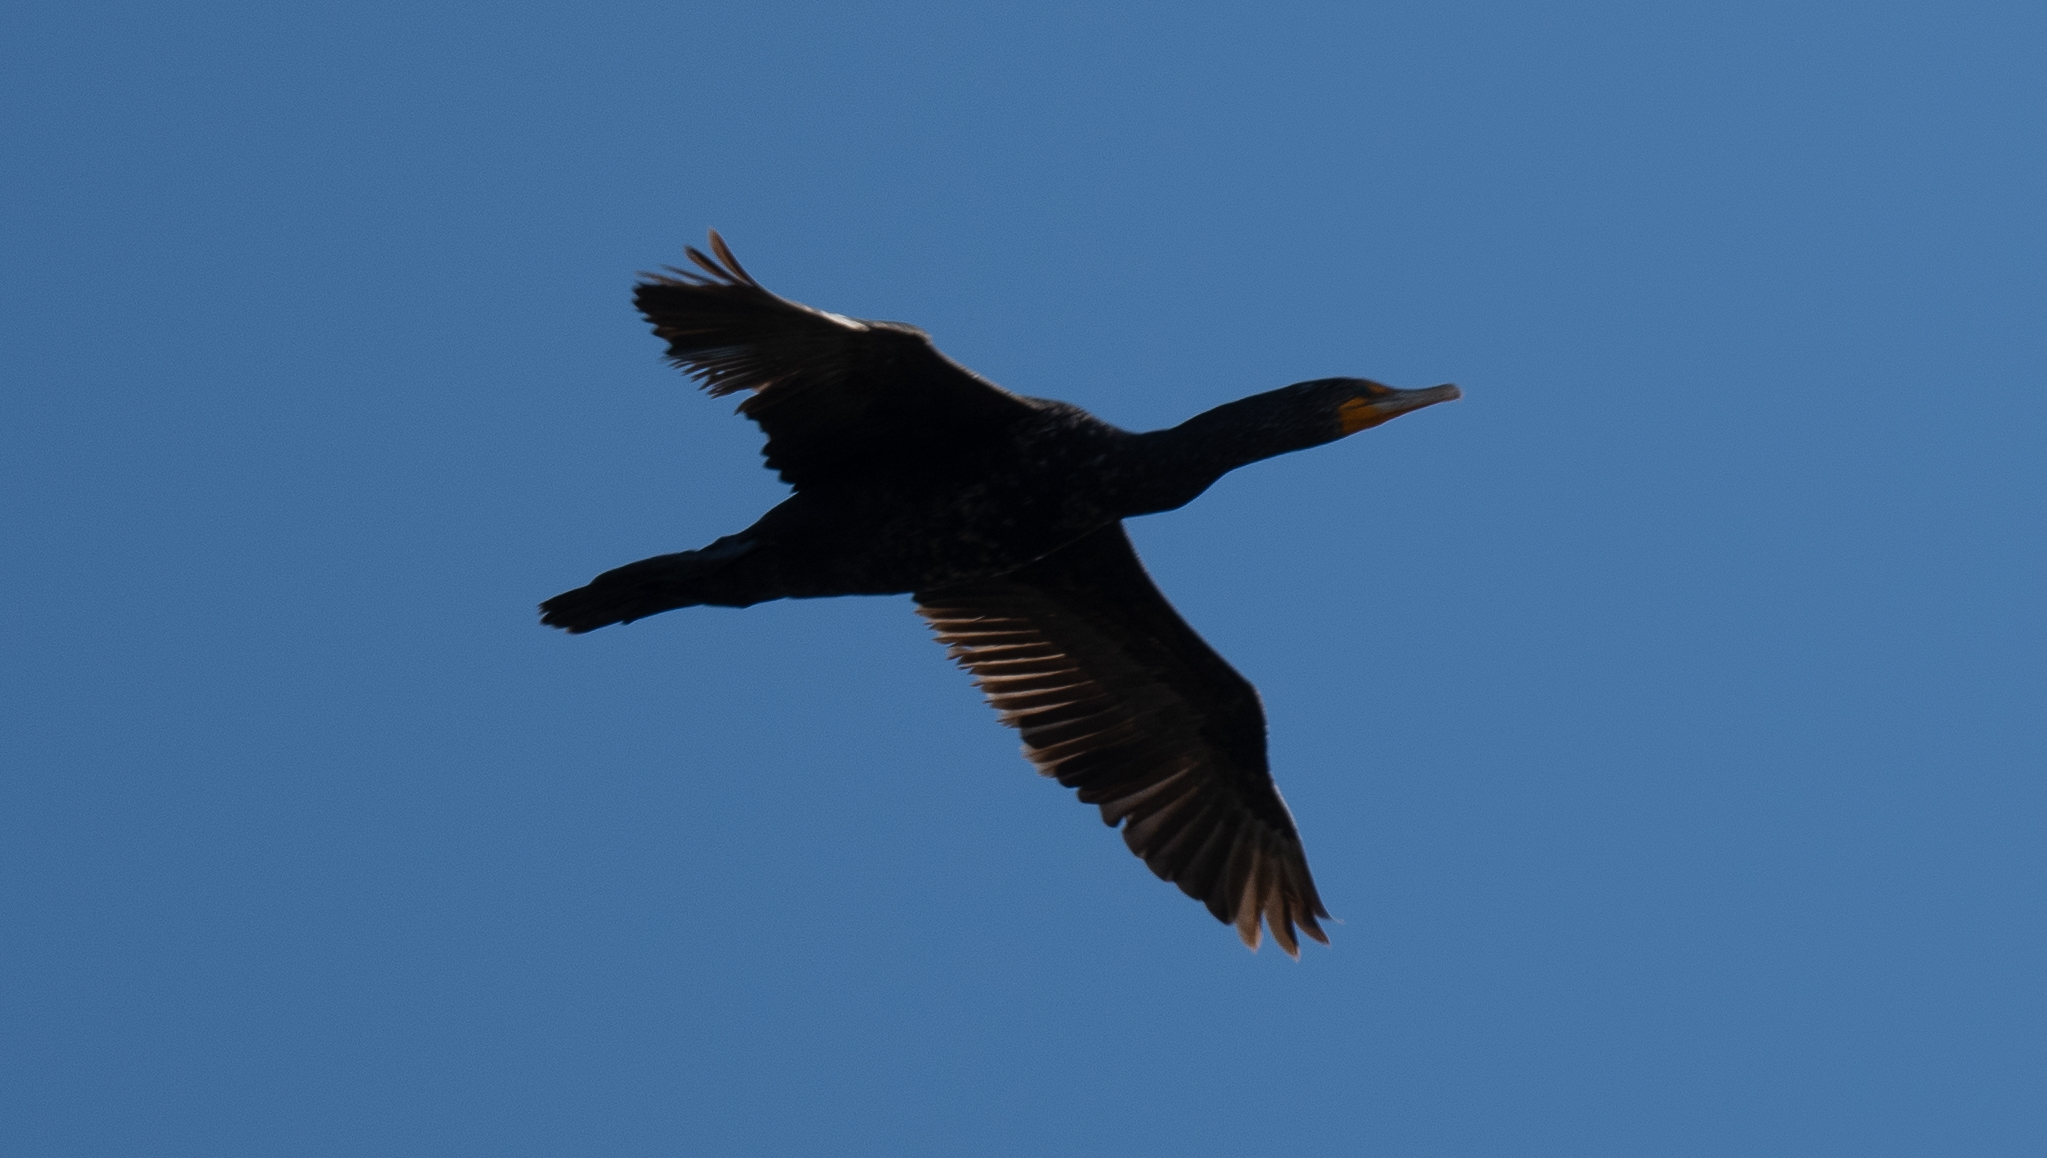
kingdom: Animalia
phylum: Chordata
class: Aves
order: Suliformes
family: Phalacrocoracidae
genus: Phalacrocorax
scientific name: Phalacrocorax auritus
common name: Double-crested cormorant
